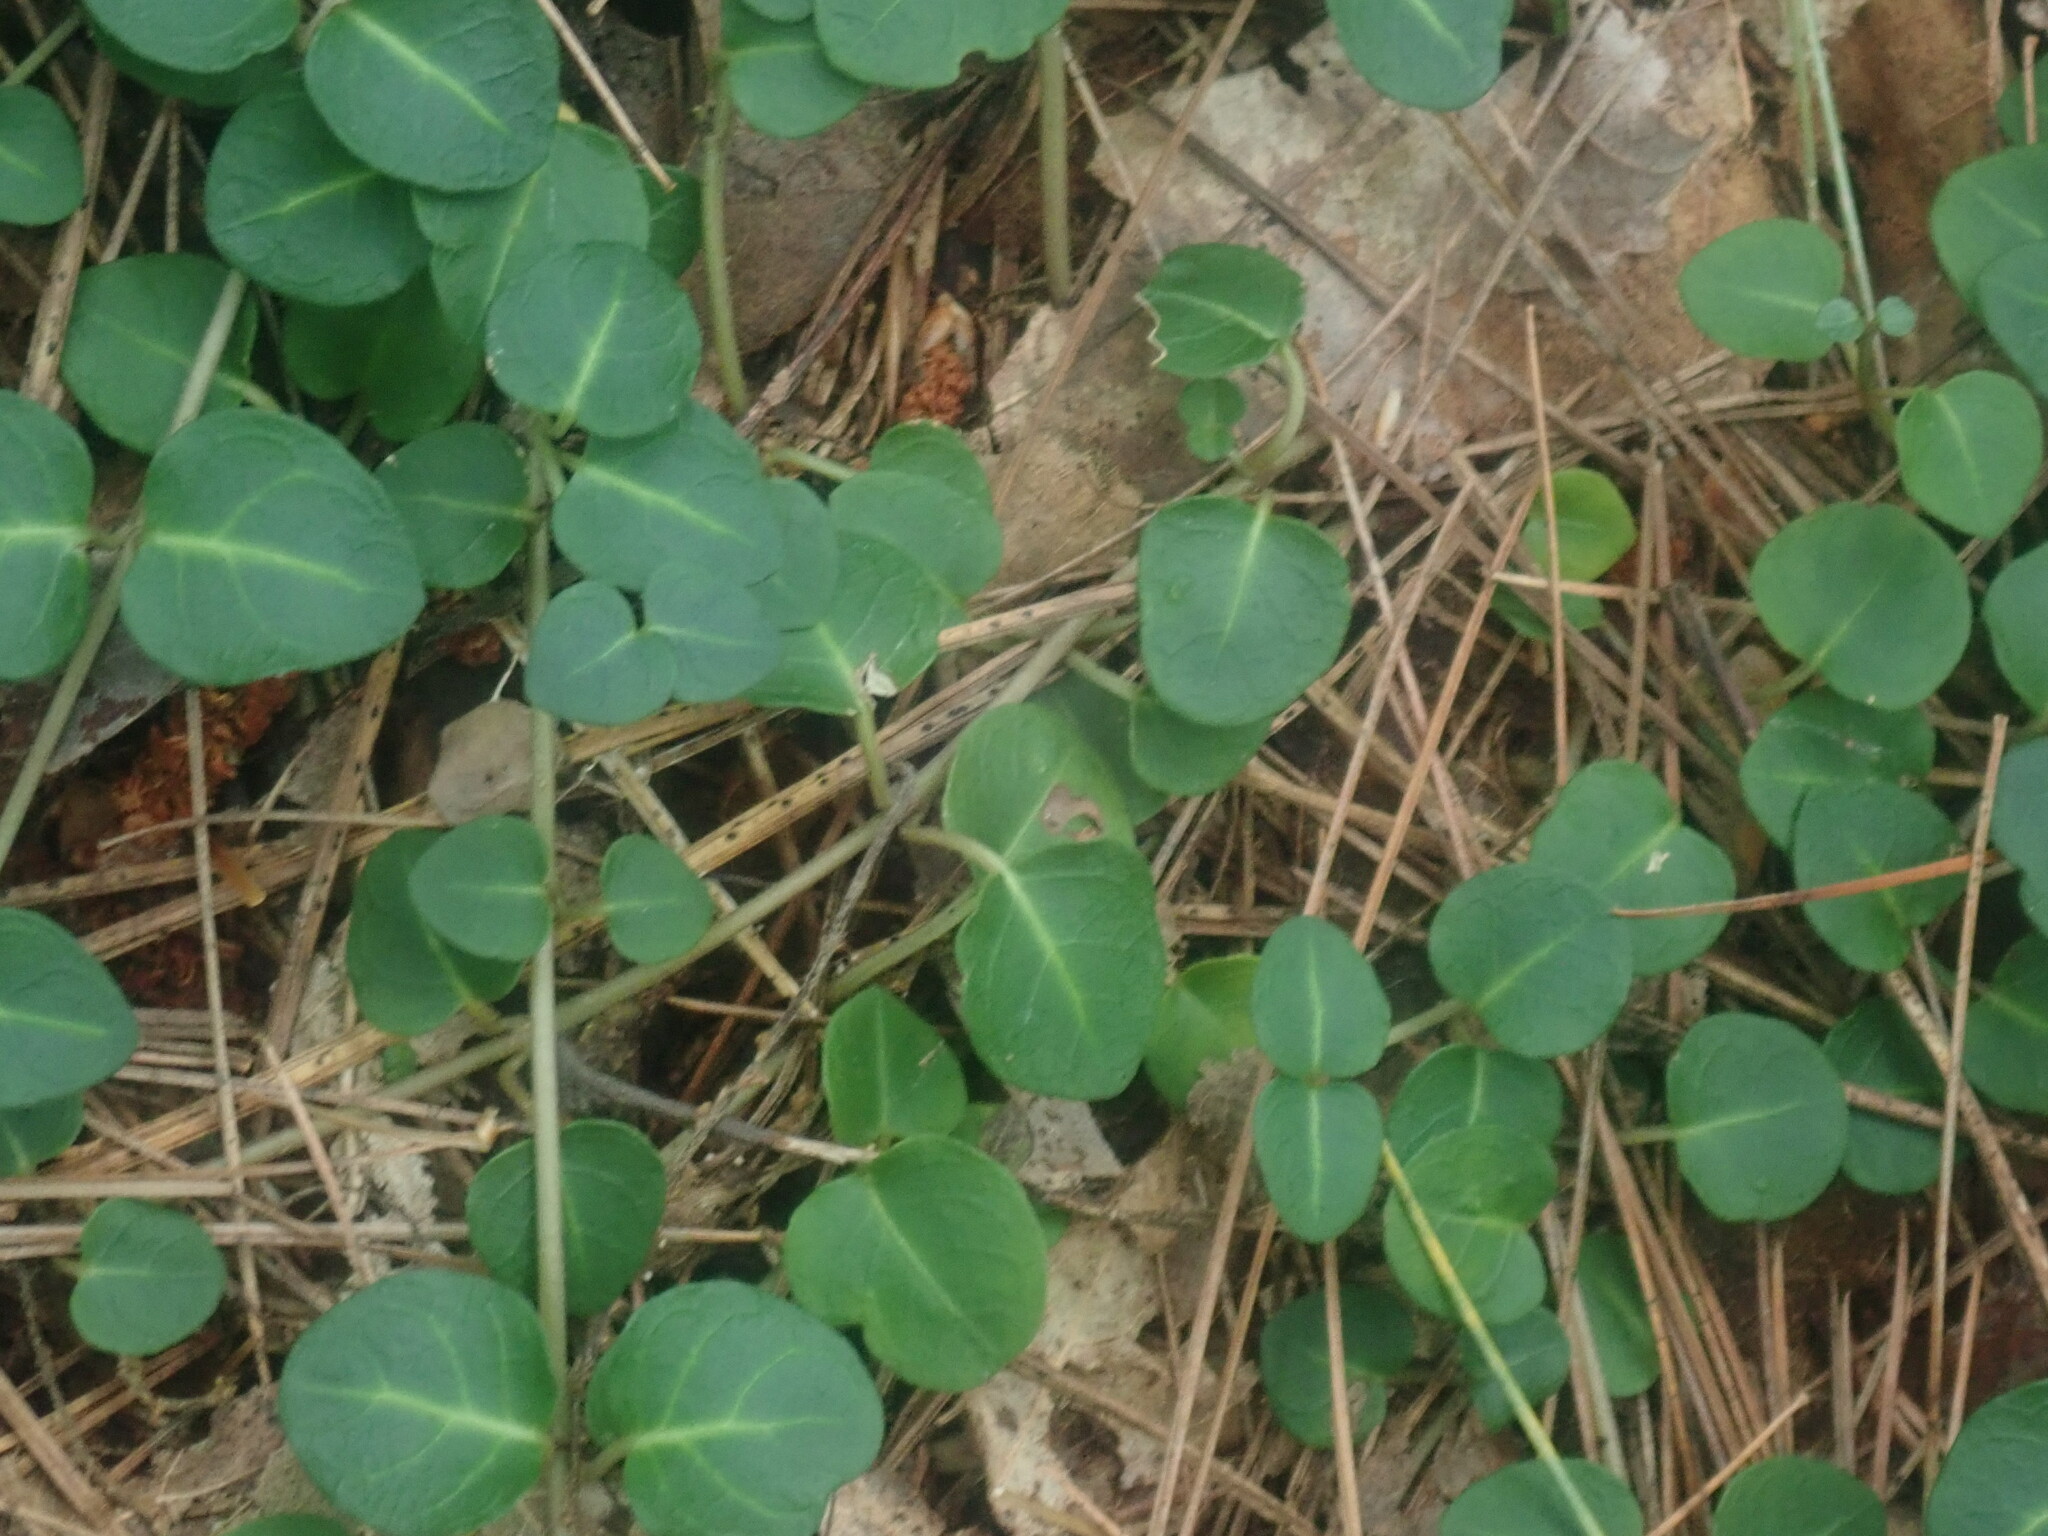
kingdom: Plantae
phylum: Tracheophyta
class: Magnoliopsida
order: Gentianales
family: Rubiaceae
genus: Mitchella
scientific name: Mitchella repens
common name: Partridge-berry
